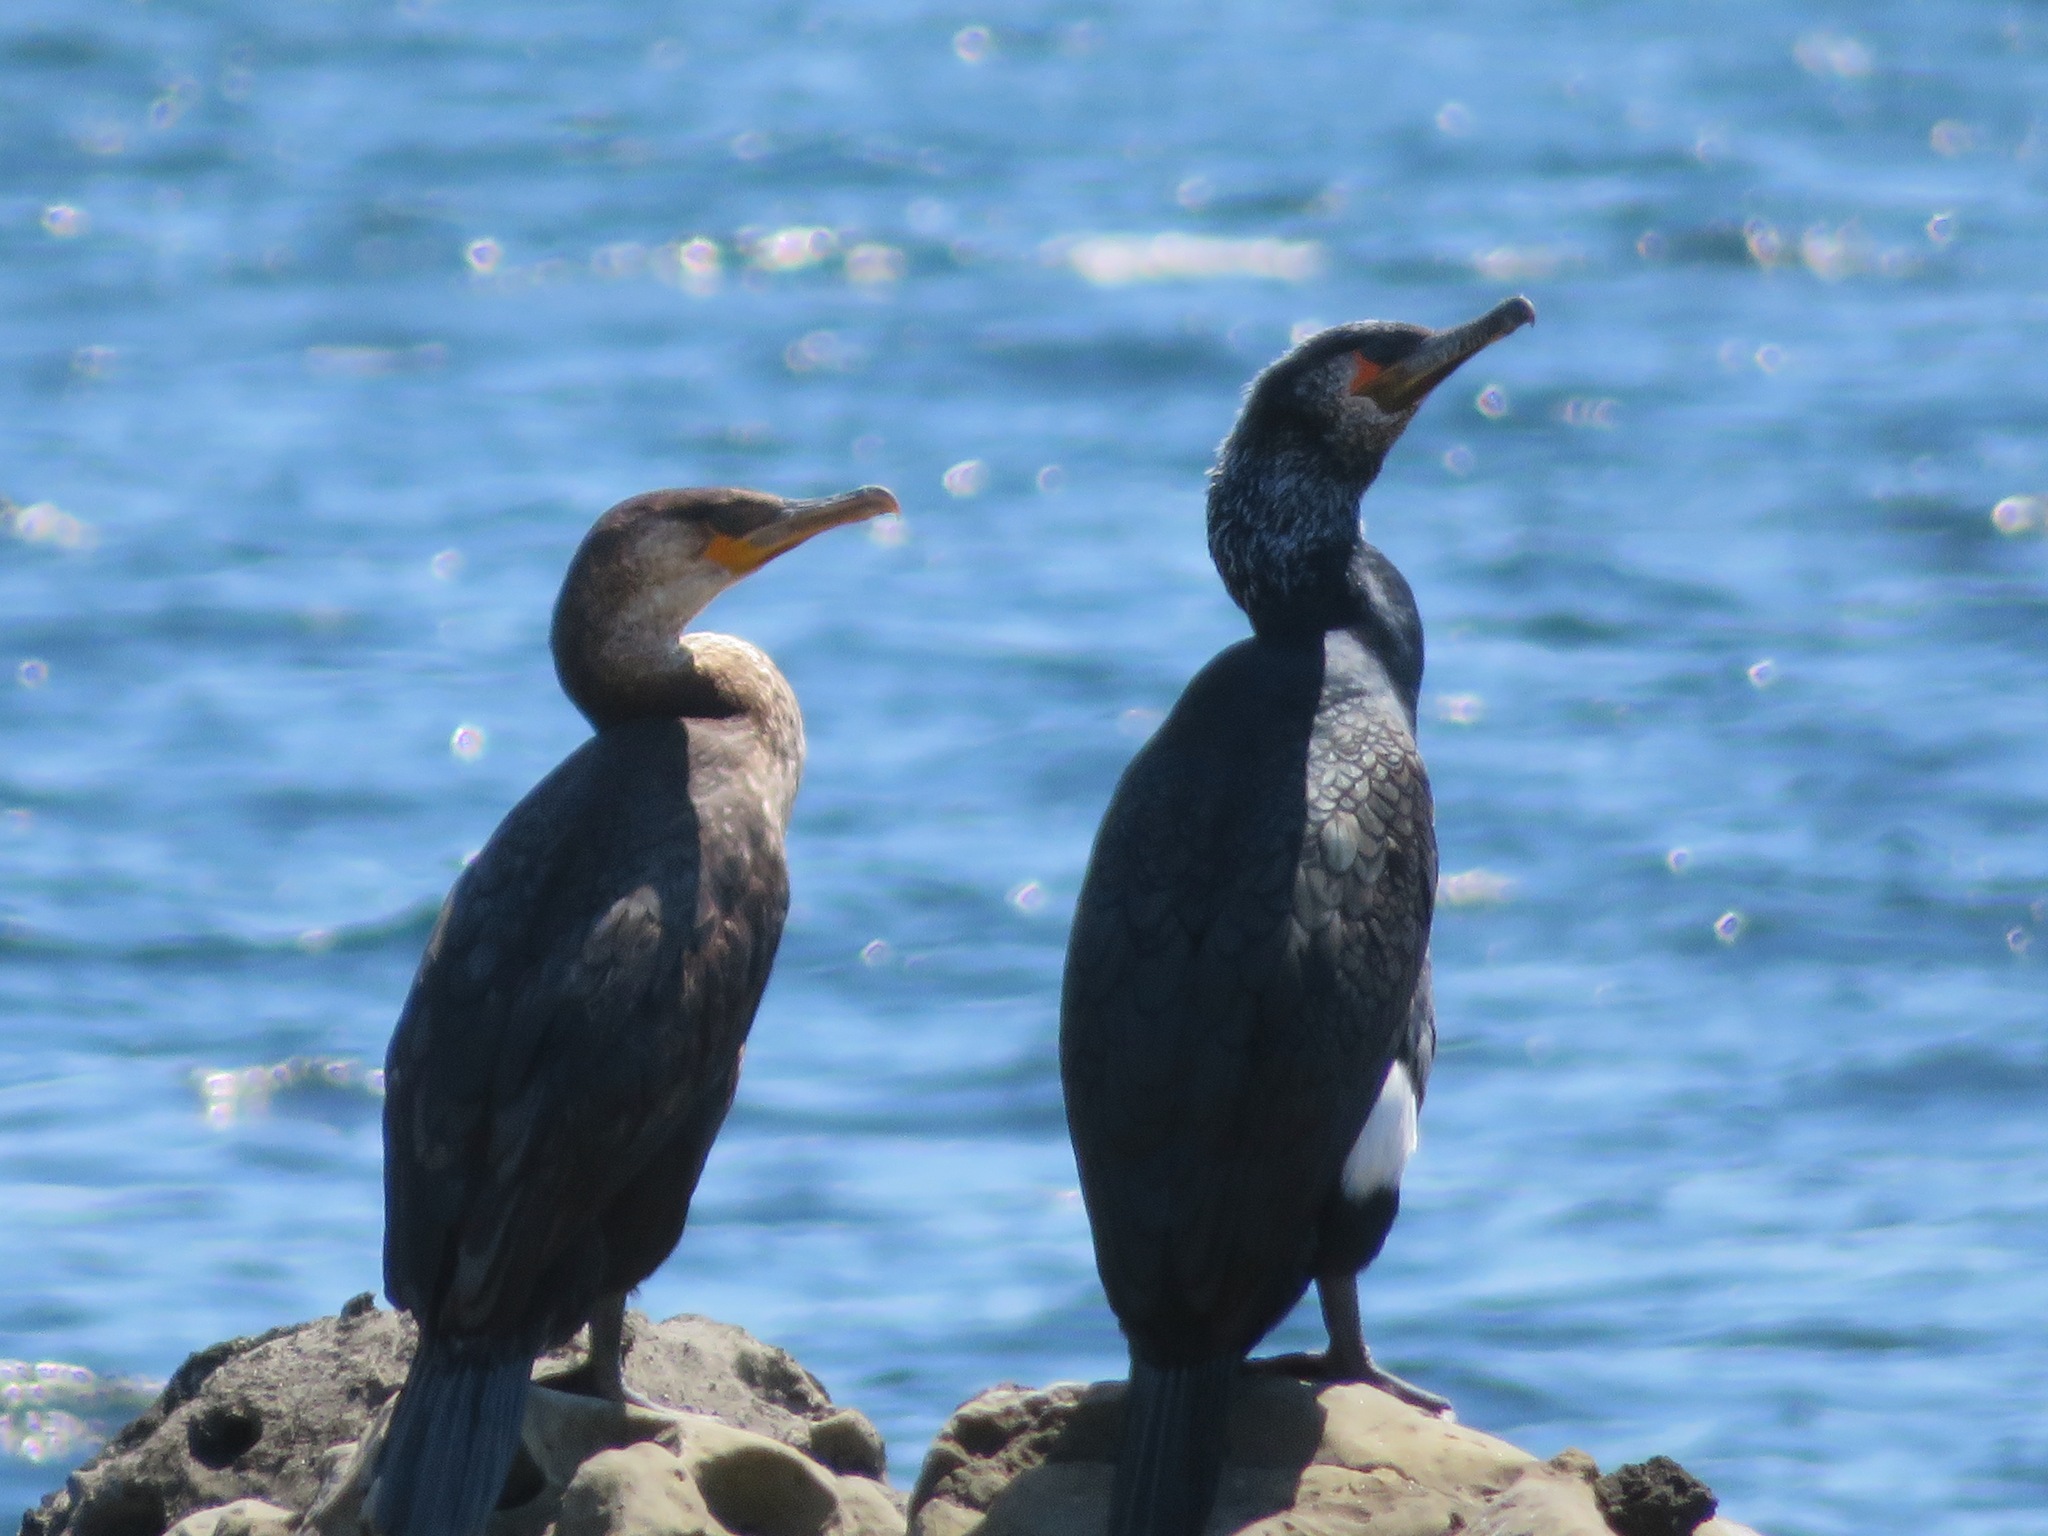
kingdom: Animalia
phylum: Chordata
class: Aves
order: Suliformes
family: Phalacrocoracidae
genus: Phalacrocorax
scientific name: Phalacrocorax capillatus
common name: Japanese cormorant
